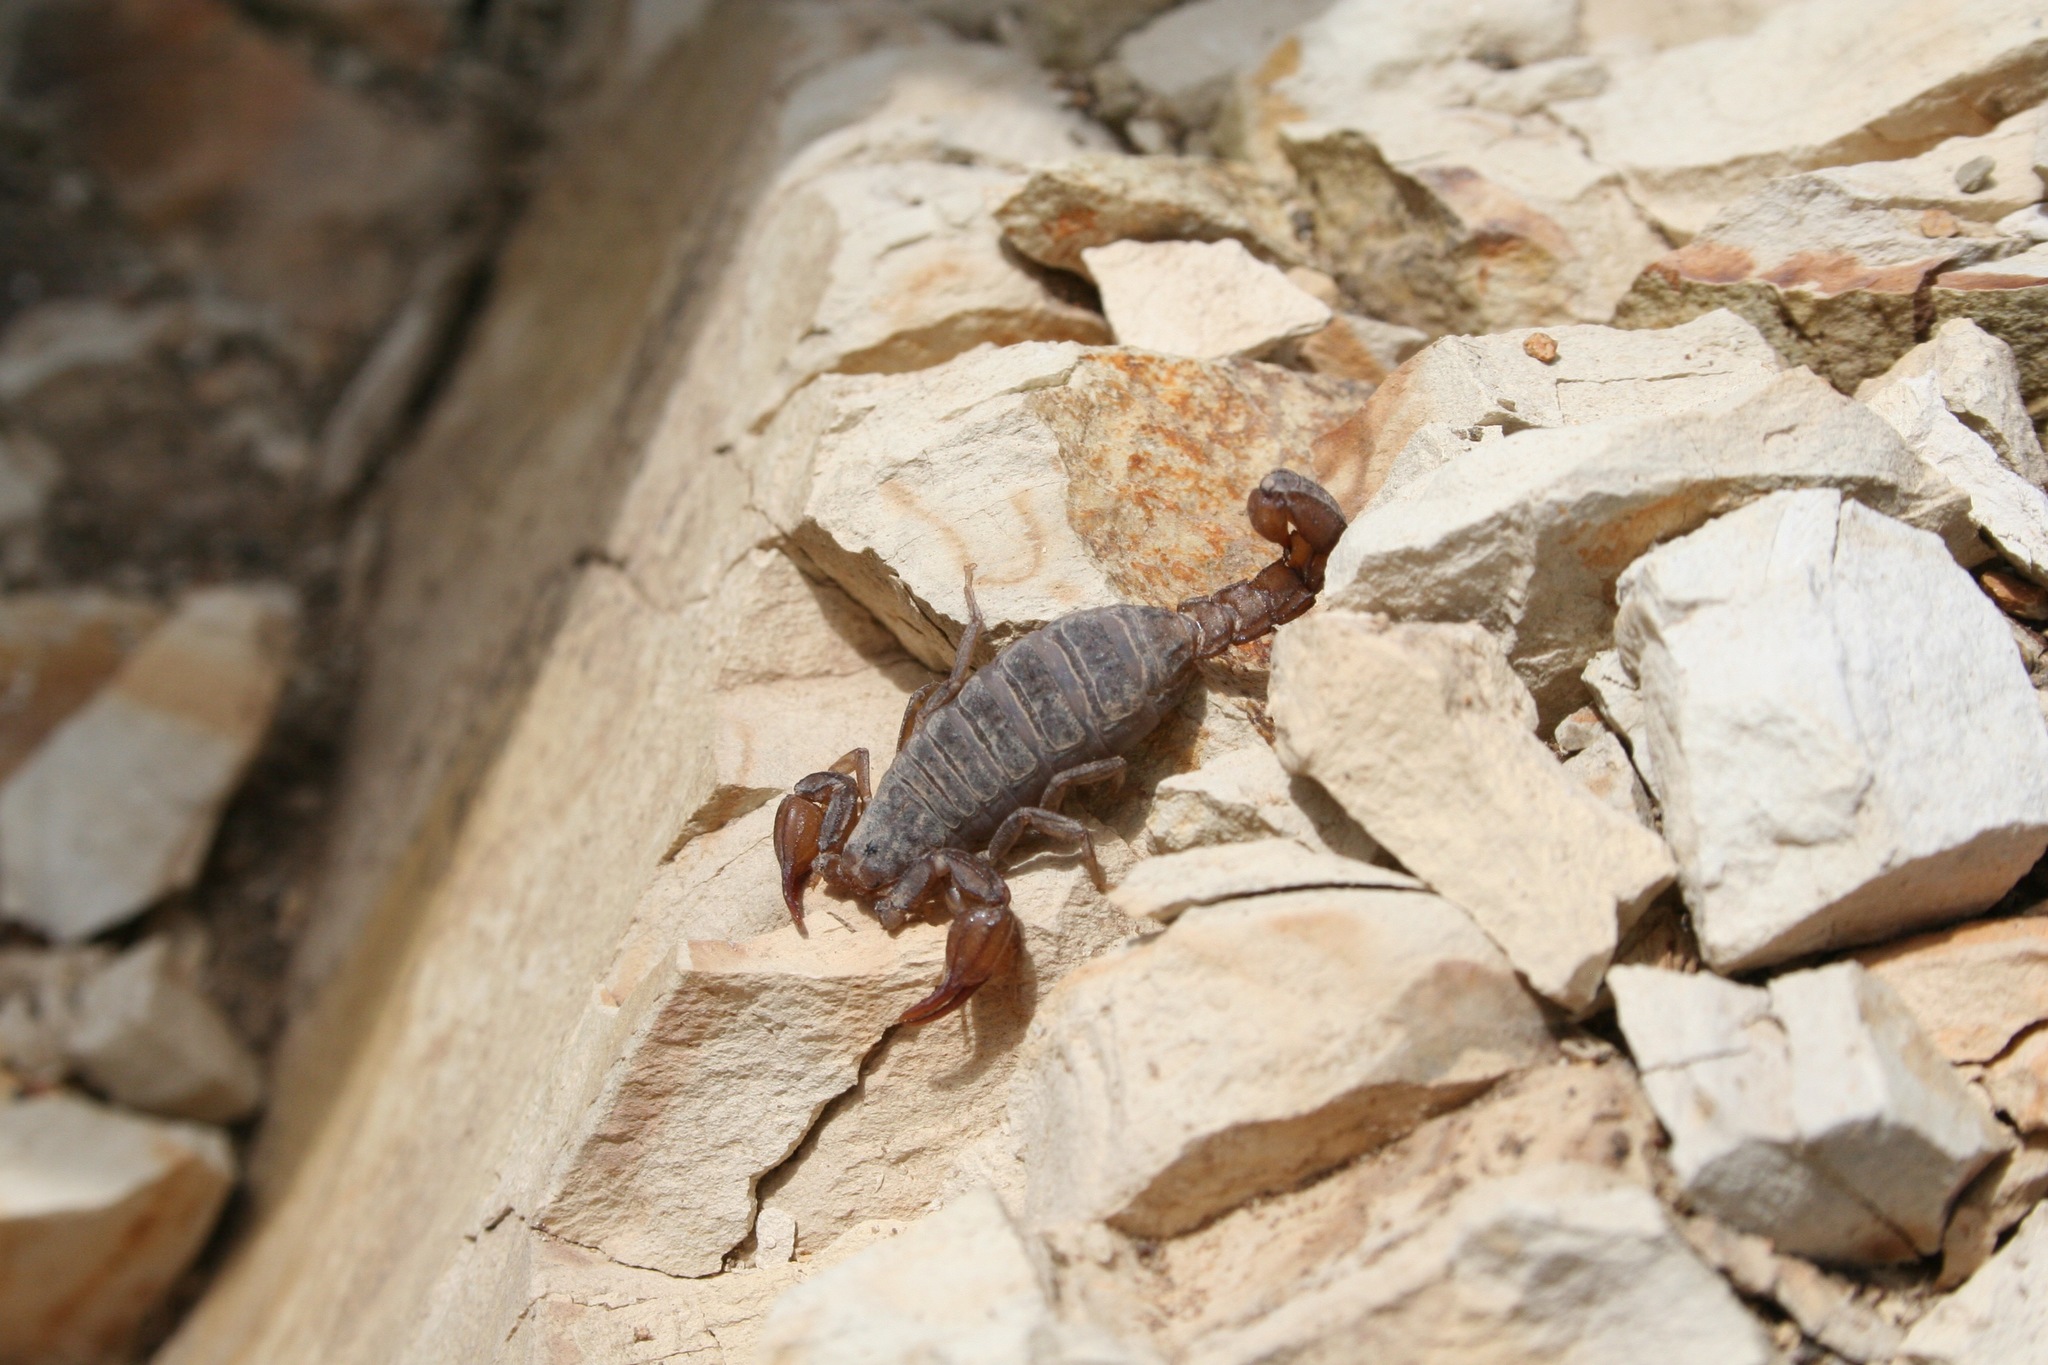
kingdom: Animalia
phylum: Arthropoda
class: Arachnida
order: Scorpiones
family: Vaejovidae
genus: Catalinia
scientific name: Catalinia thompsoni
